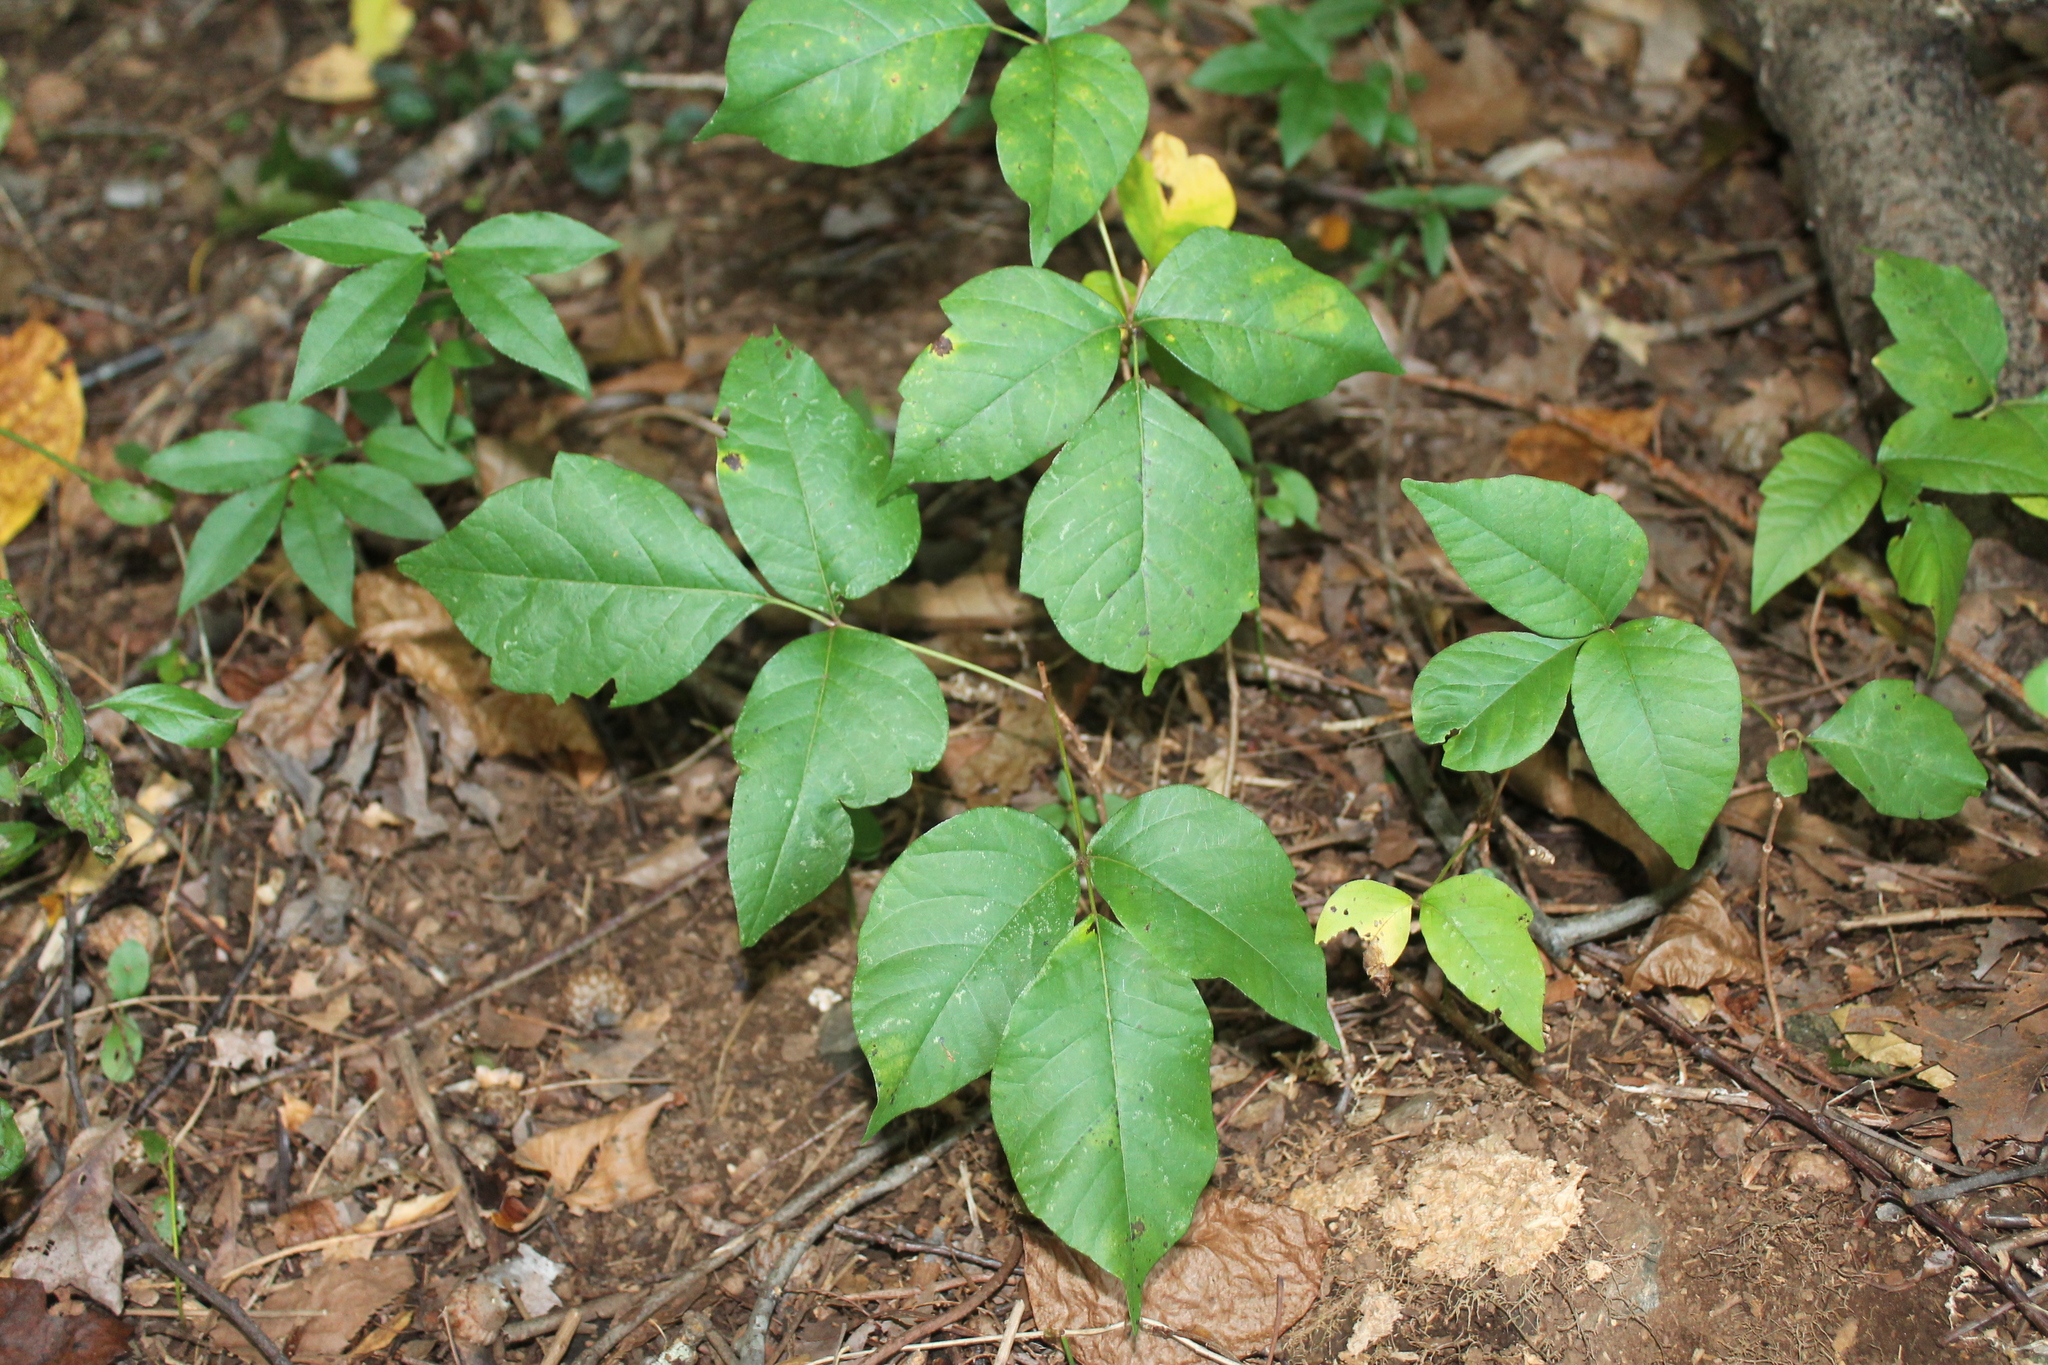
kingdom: Plantae
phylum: Tracheophyta
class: Magnoliopsida
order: Sapindales
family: Anacardiaceae
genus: Toxicodendron
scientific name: Toxicodendron radicans
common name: Poison ivy
